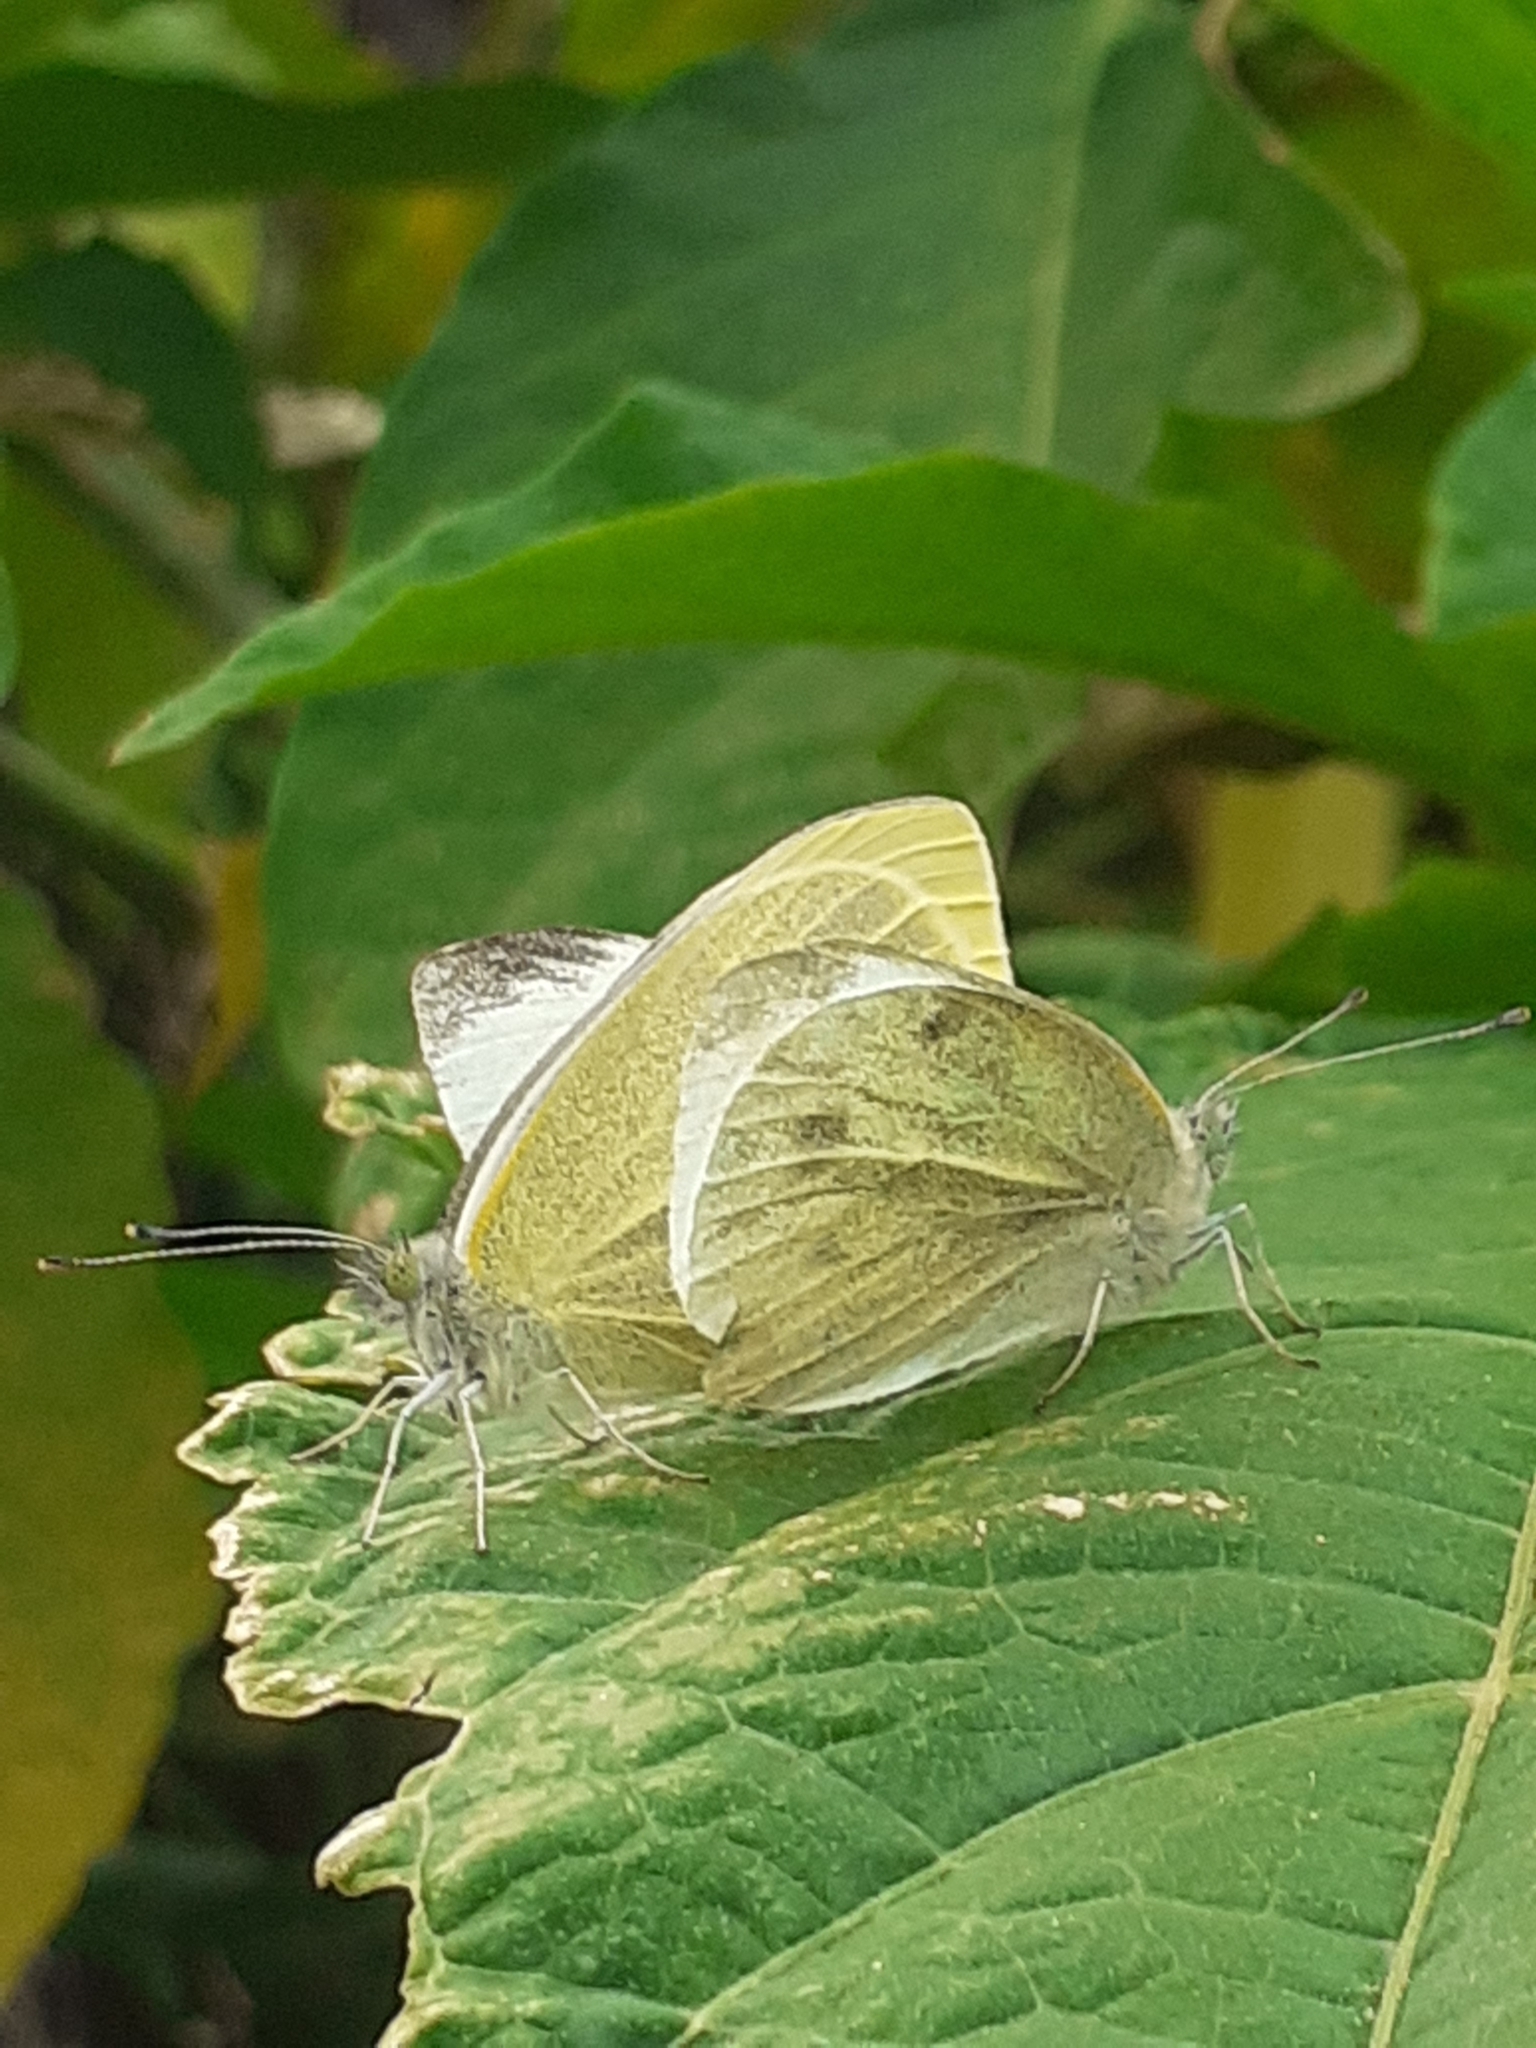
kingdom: Animalia
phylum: Arthropoda
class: Insecta
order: Lepidoptera
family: Pieridae
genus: Pieris
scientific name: Pieris rapae
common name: Small white
